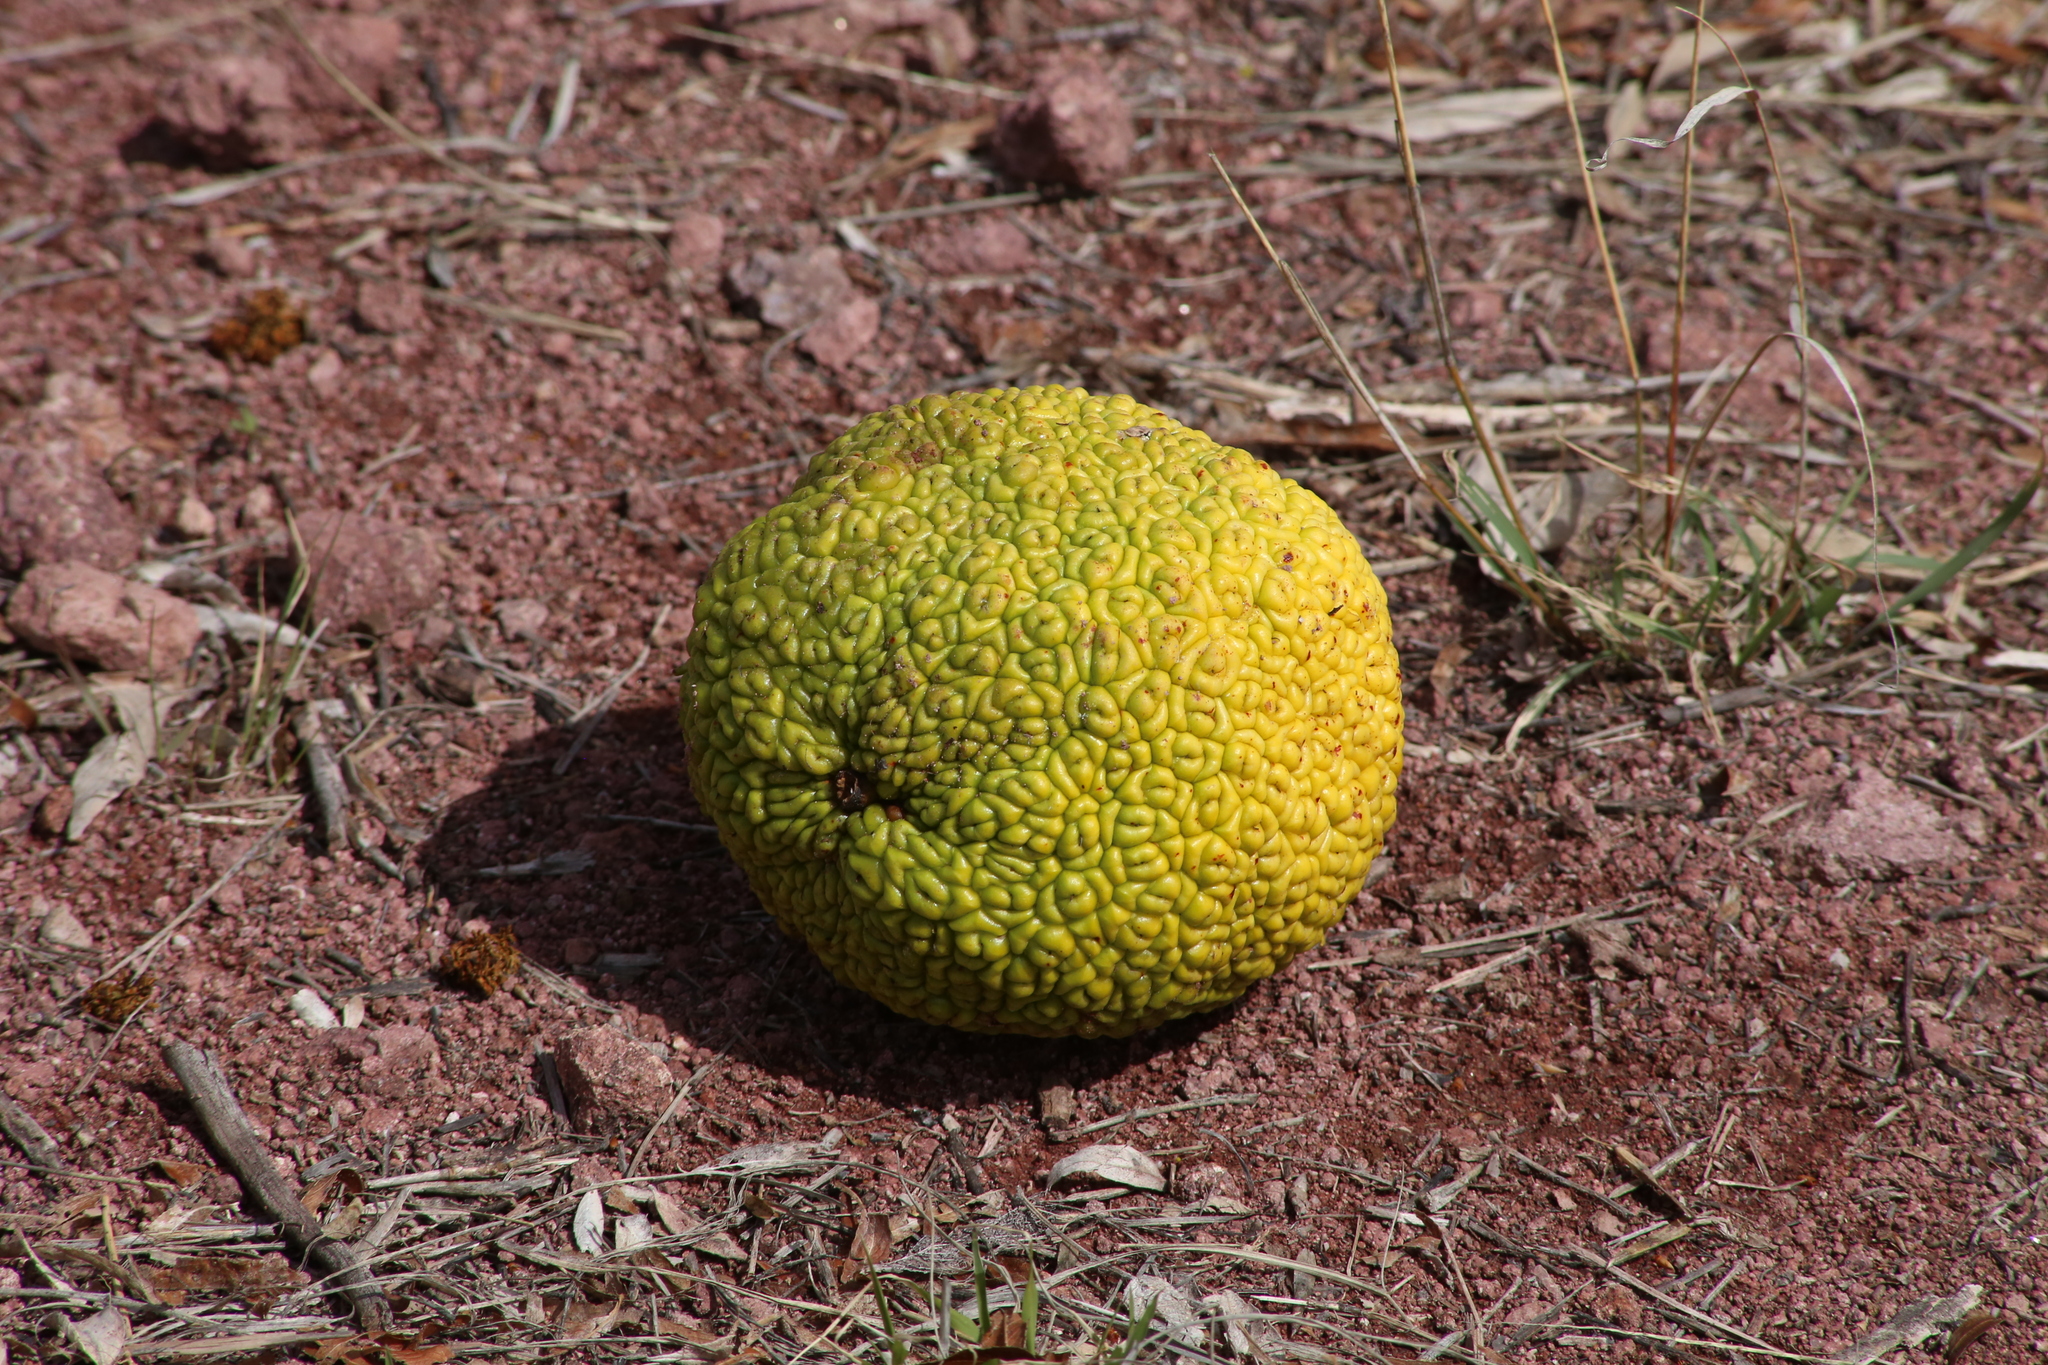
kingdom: Plantae
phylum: Tracheophyta
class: Magnoliopsida
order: Rosales
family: Moraceae
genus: Maclura
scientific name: Maclura pomifera
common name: Osage-orange
